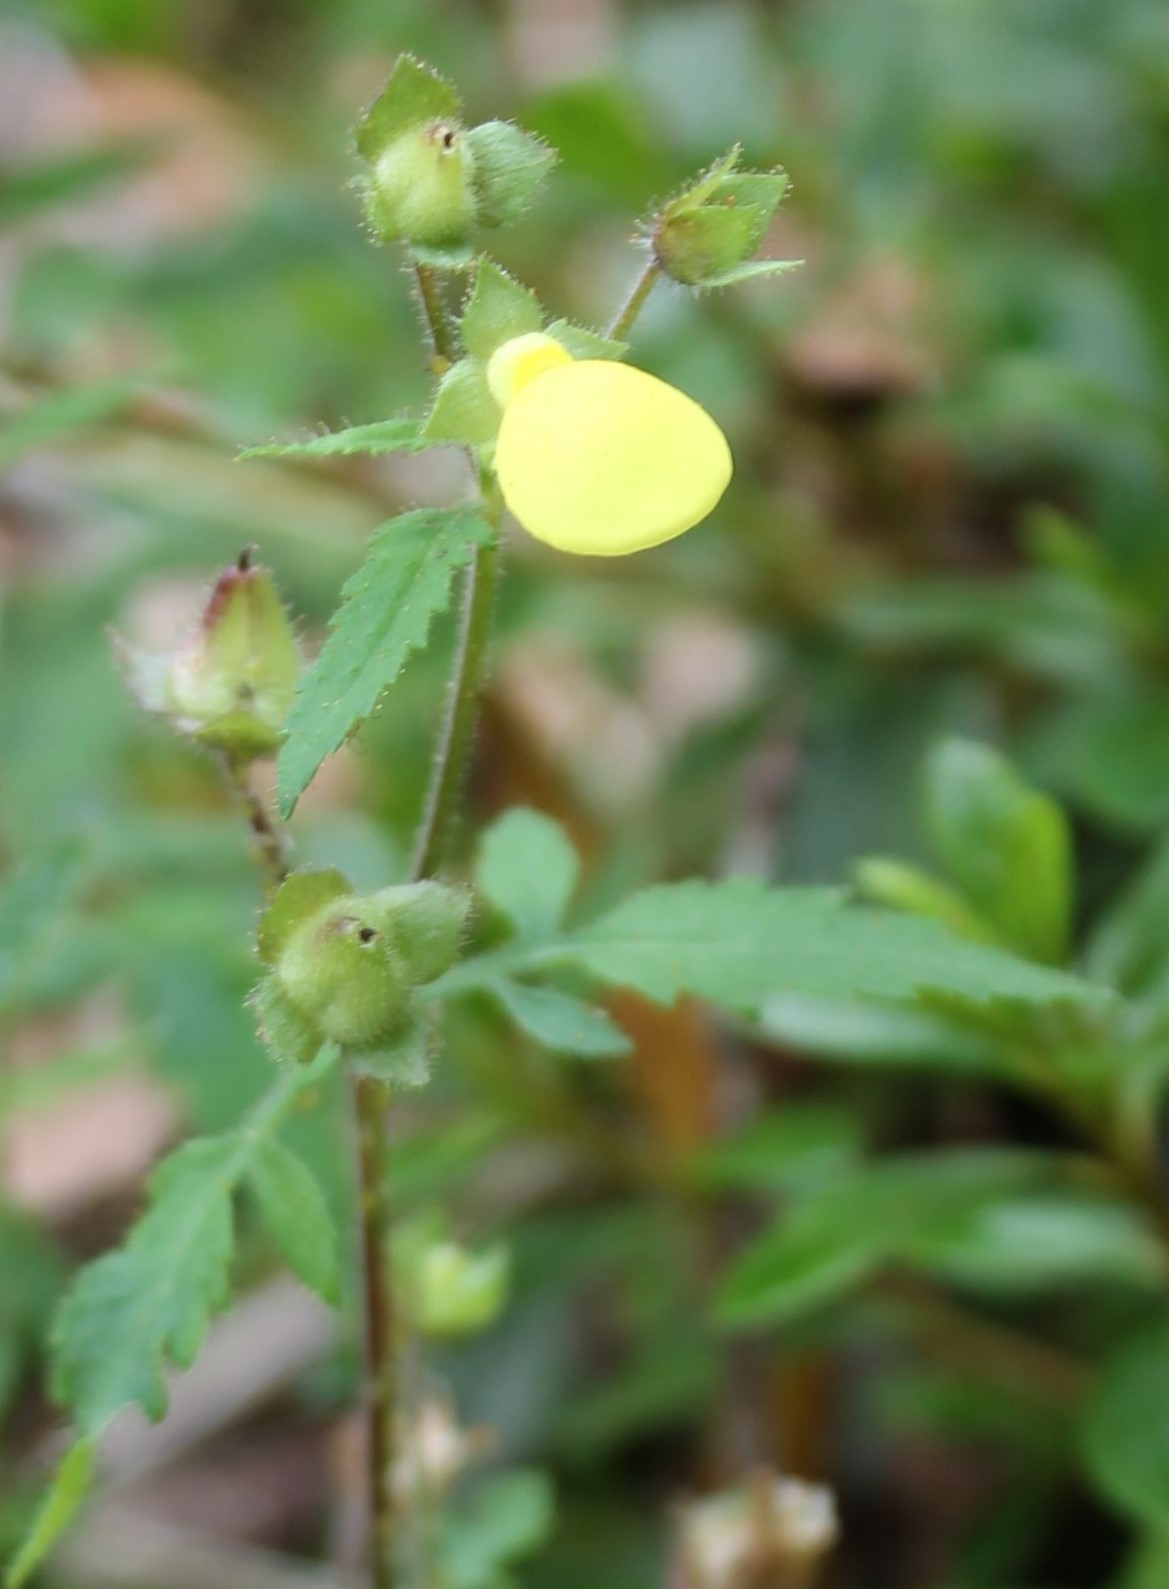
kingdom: Plantae
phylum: Tracheophyta
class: Magnoliopsida
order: Lamiales
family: Calceolariaceae
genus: Calceolaria
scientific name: Calceolaria tripartita
